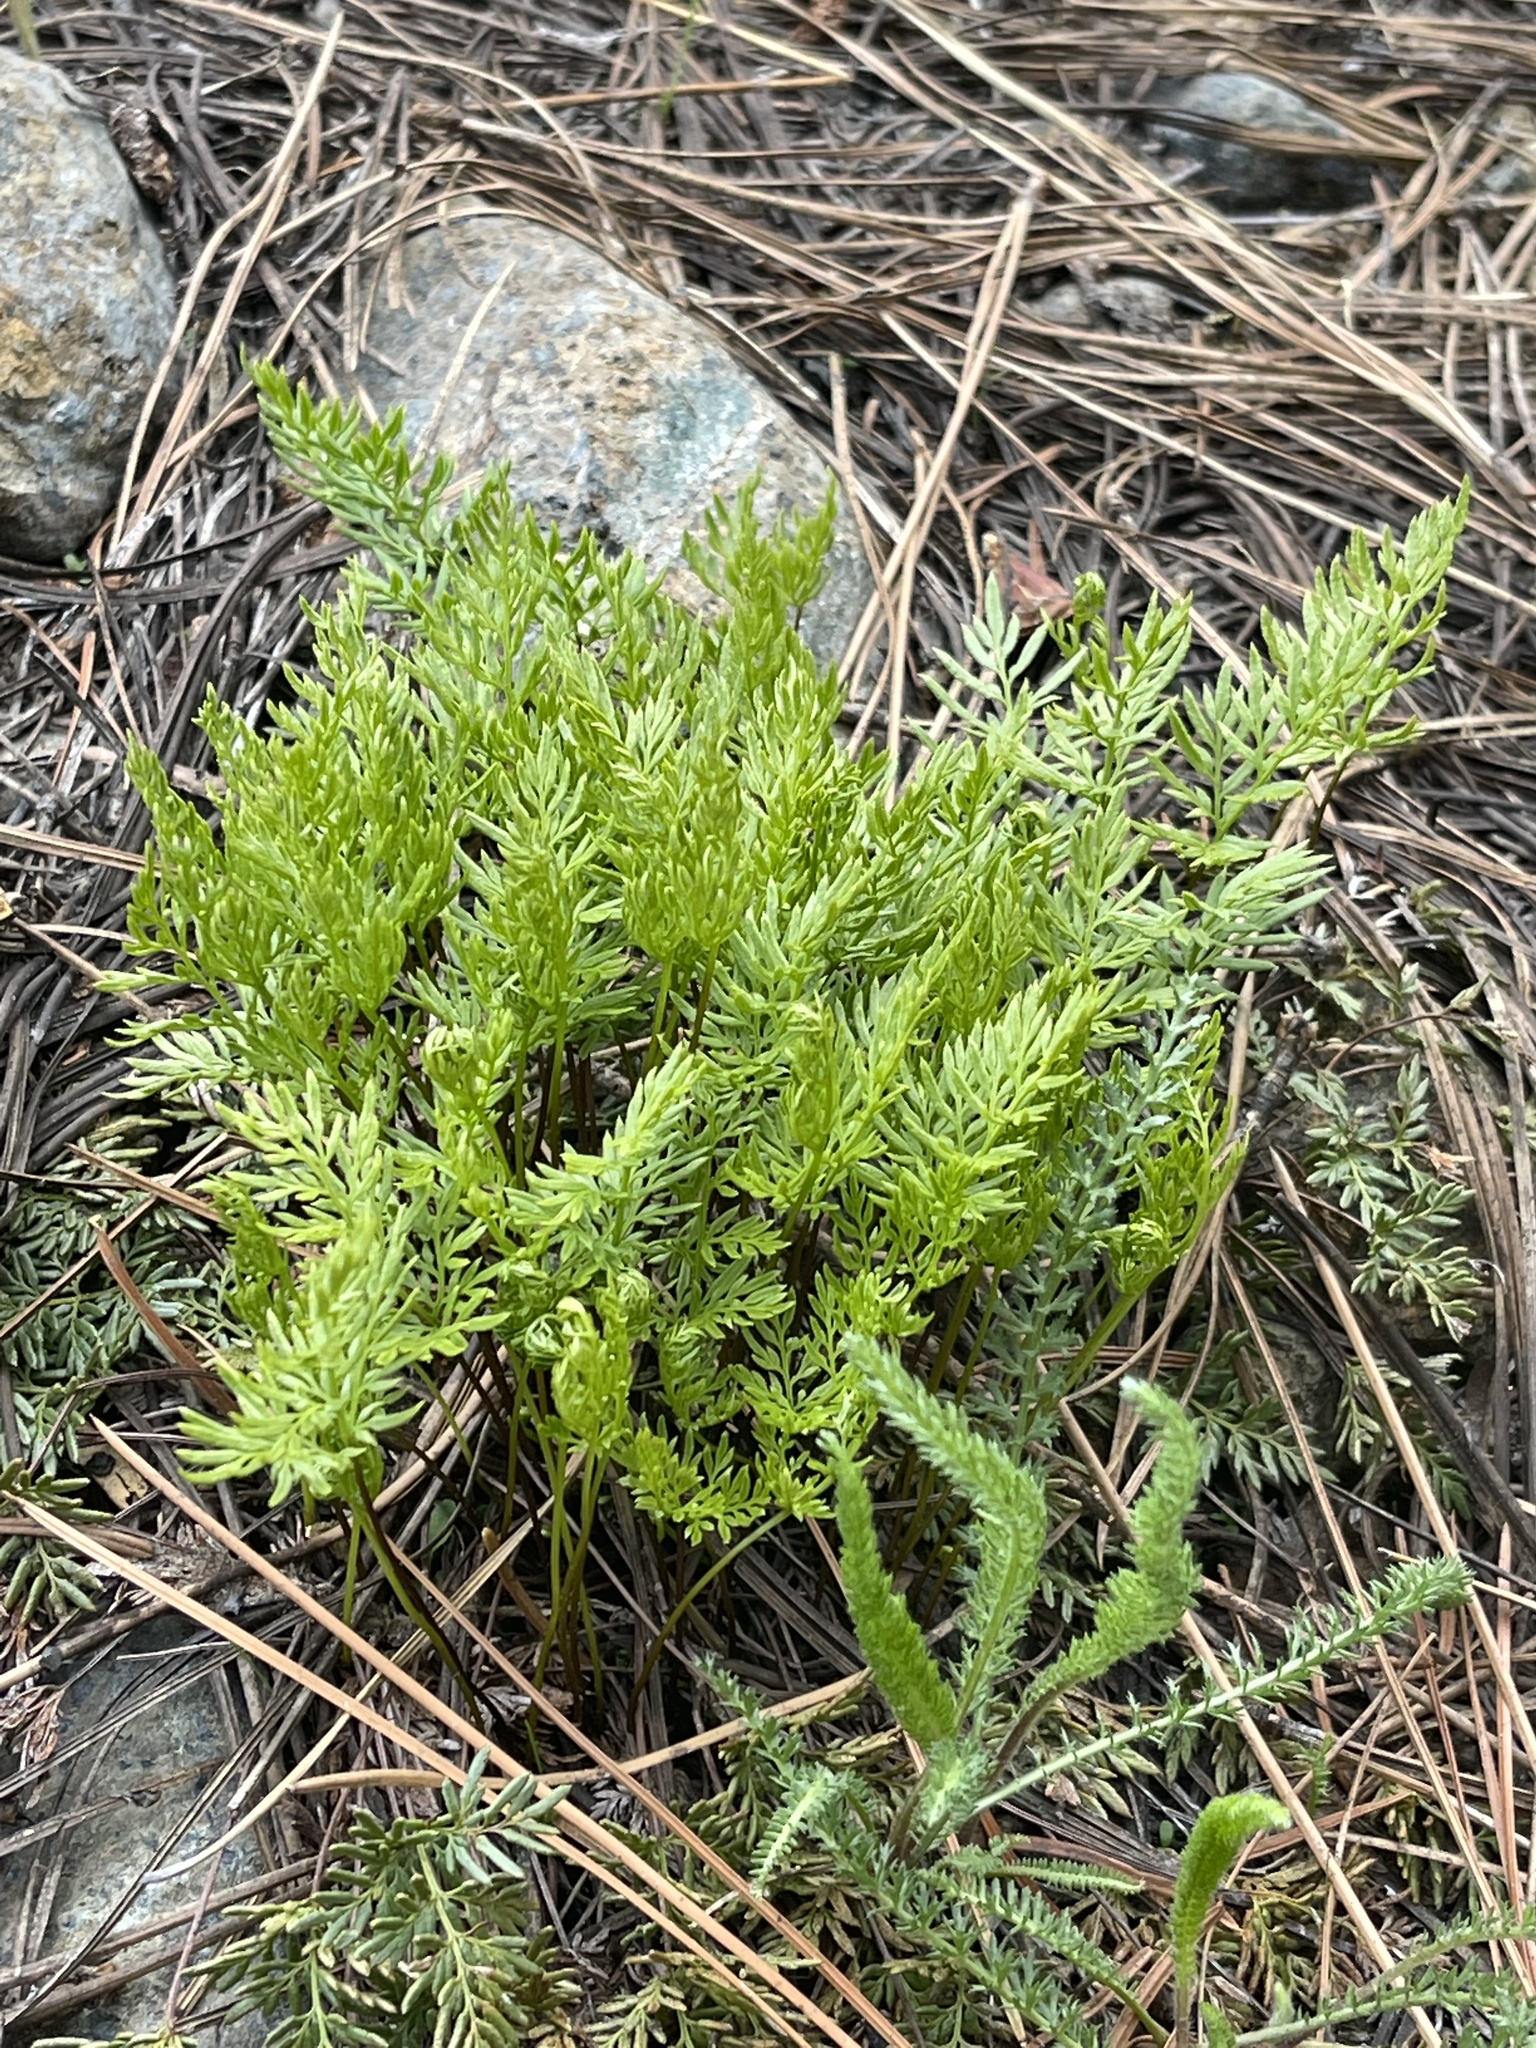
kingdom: Plantae
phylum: Tracheophyta
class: Polypodiopsida
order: Polypodiales
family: Pteridaceae
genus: Aspidotis
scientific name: Aspidotis densa
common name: Indian's dream
